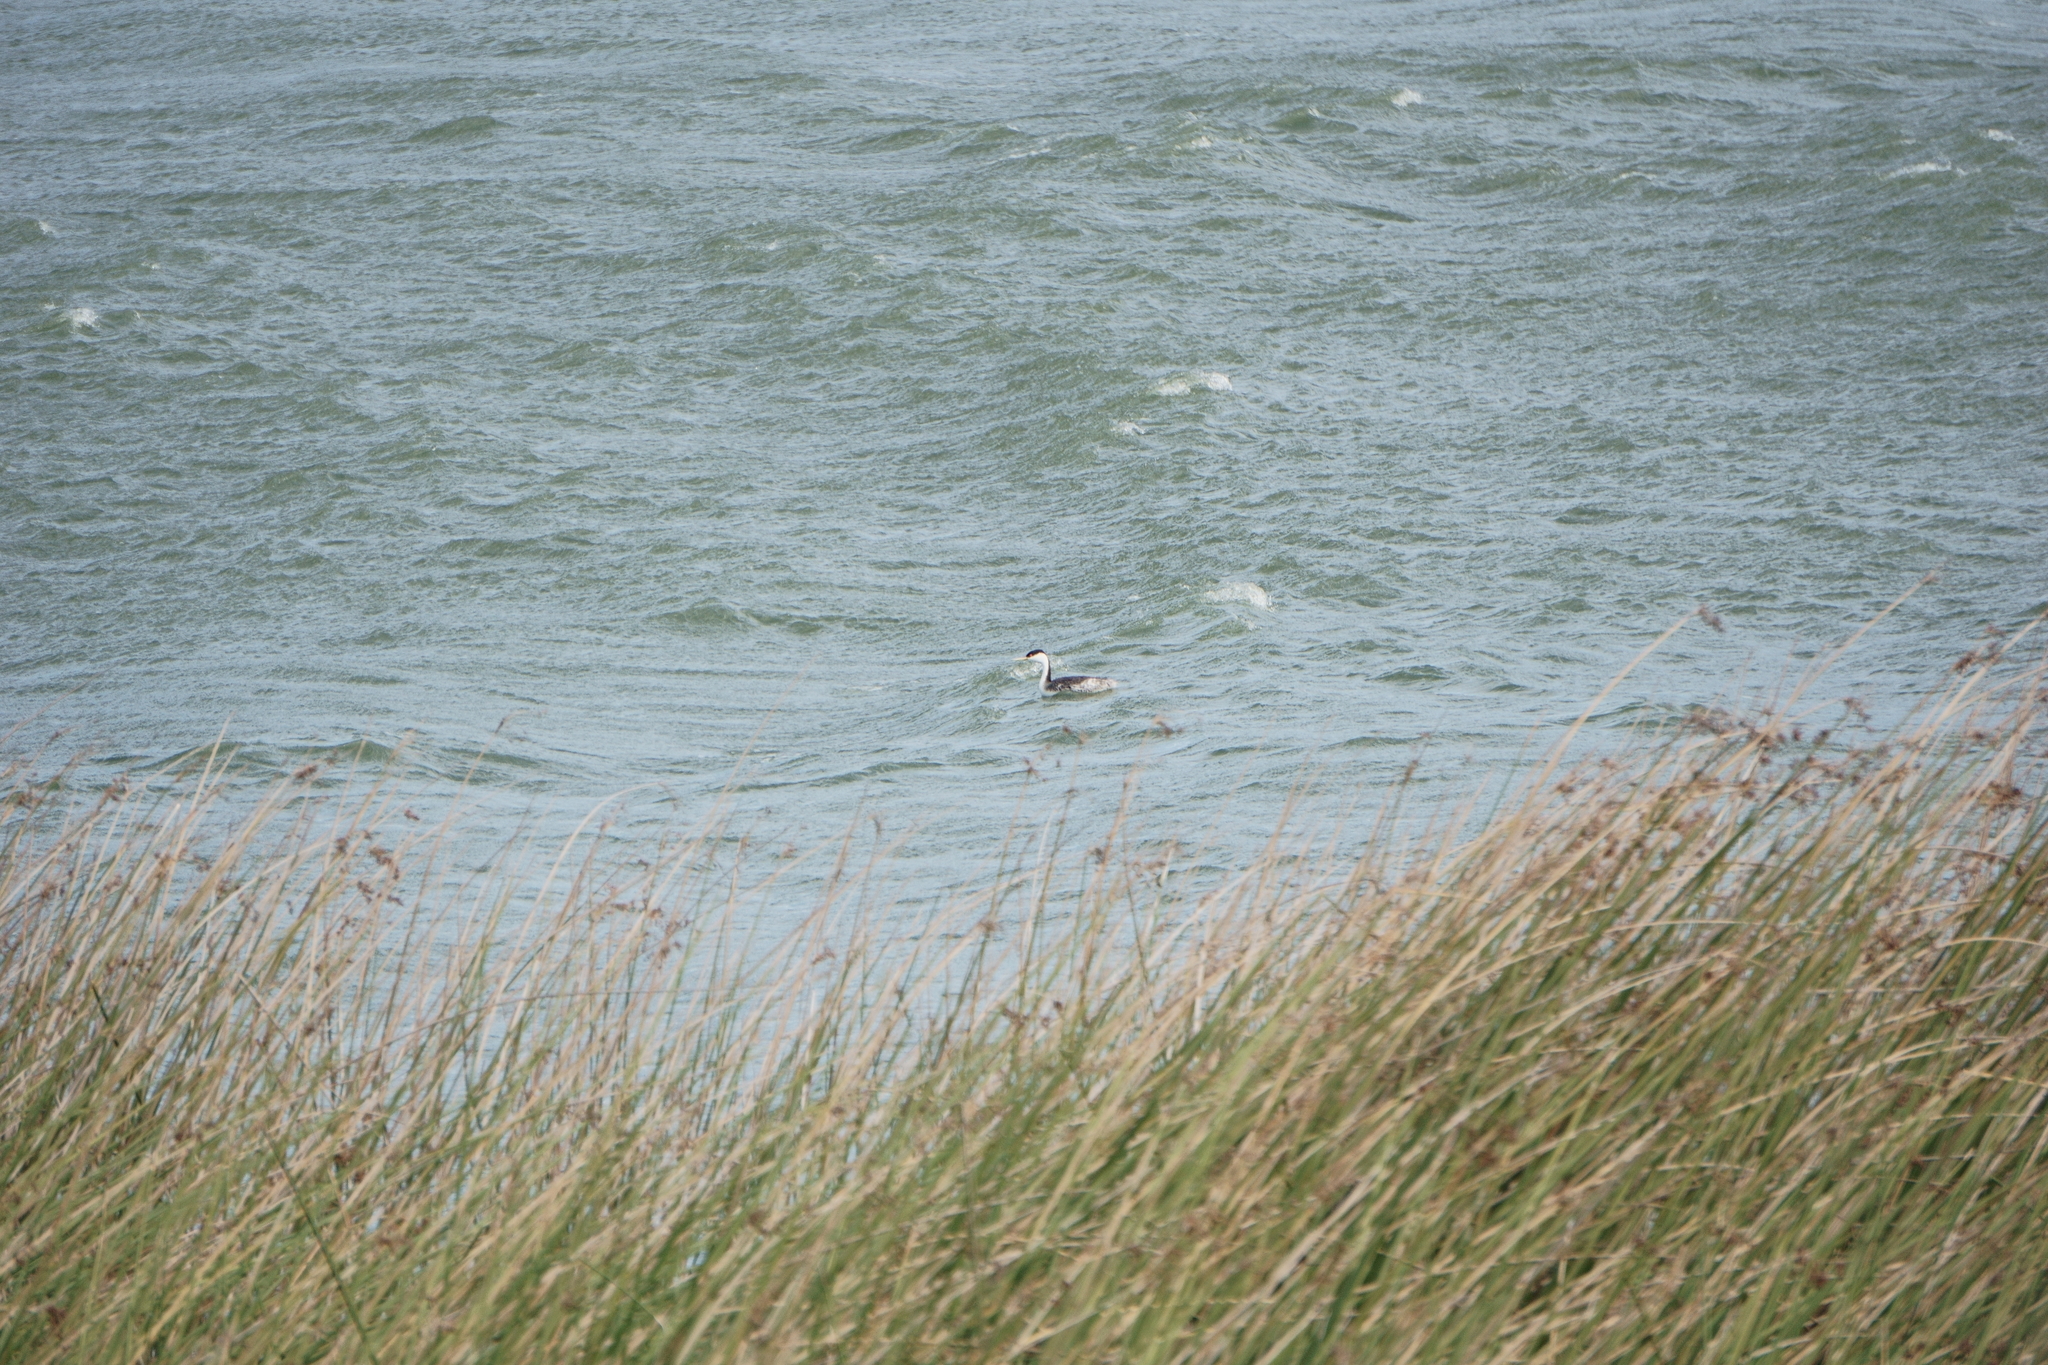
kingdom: Animalia
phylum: Chordata
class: Aves
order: Podicipediformes
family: Podicipedidae
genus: Aechmophorus
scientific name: Aechmophorus occidentalis
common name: Western grebe
